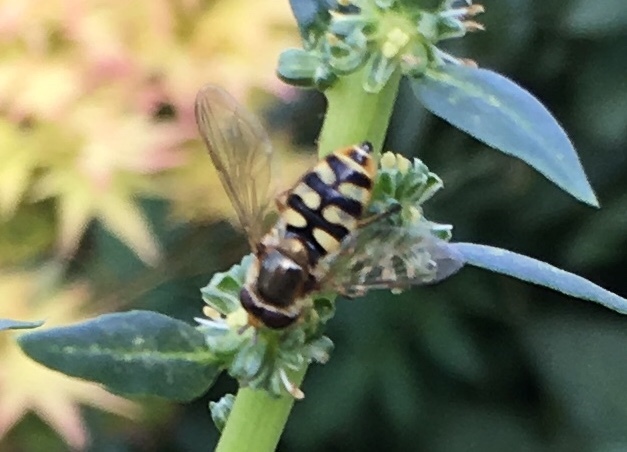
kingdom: Animalia
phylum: Arthropoda
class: Insecta
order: Diptera
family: Syrphidae
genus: Eupeodes
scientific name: Eupeodes corollae
